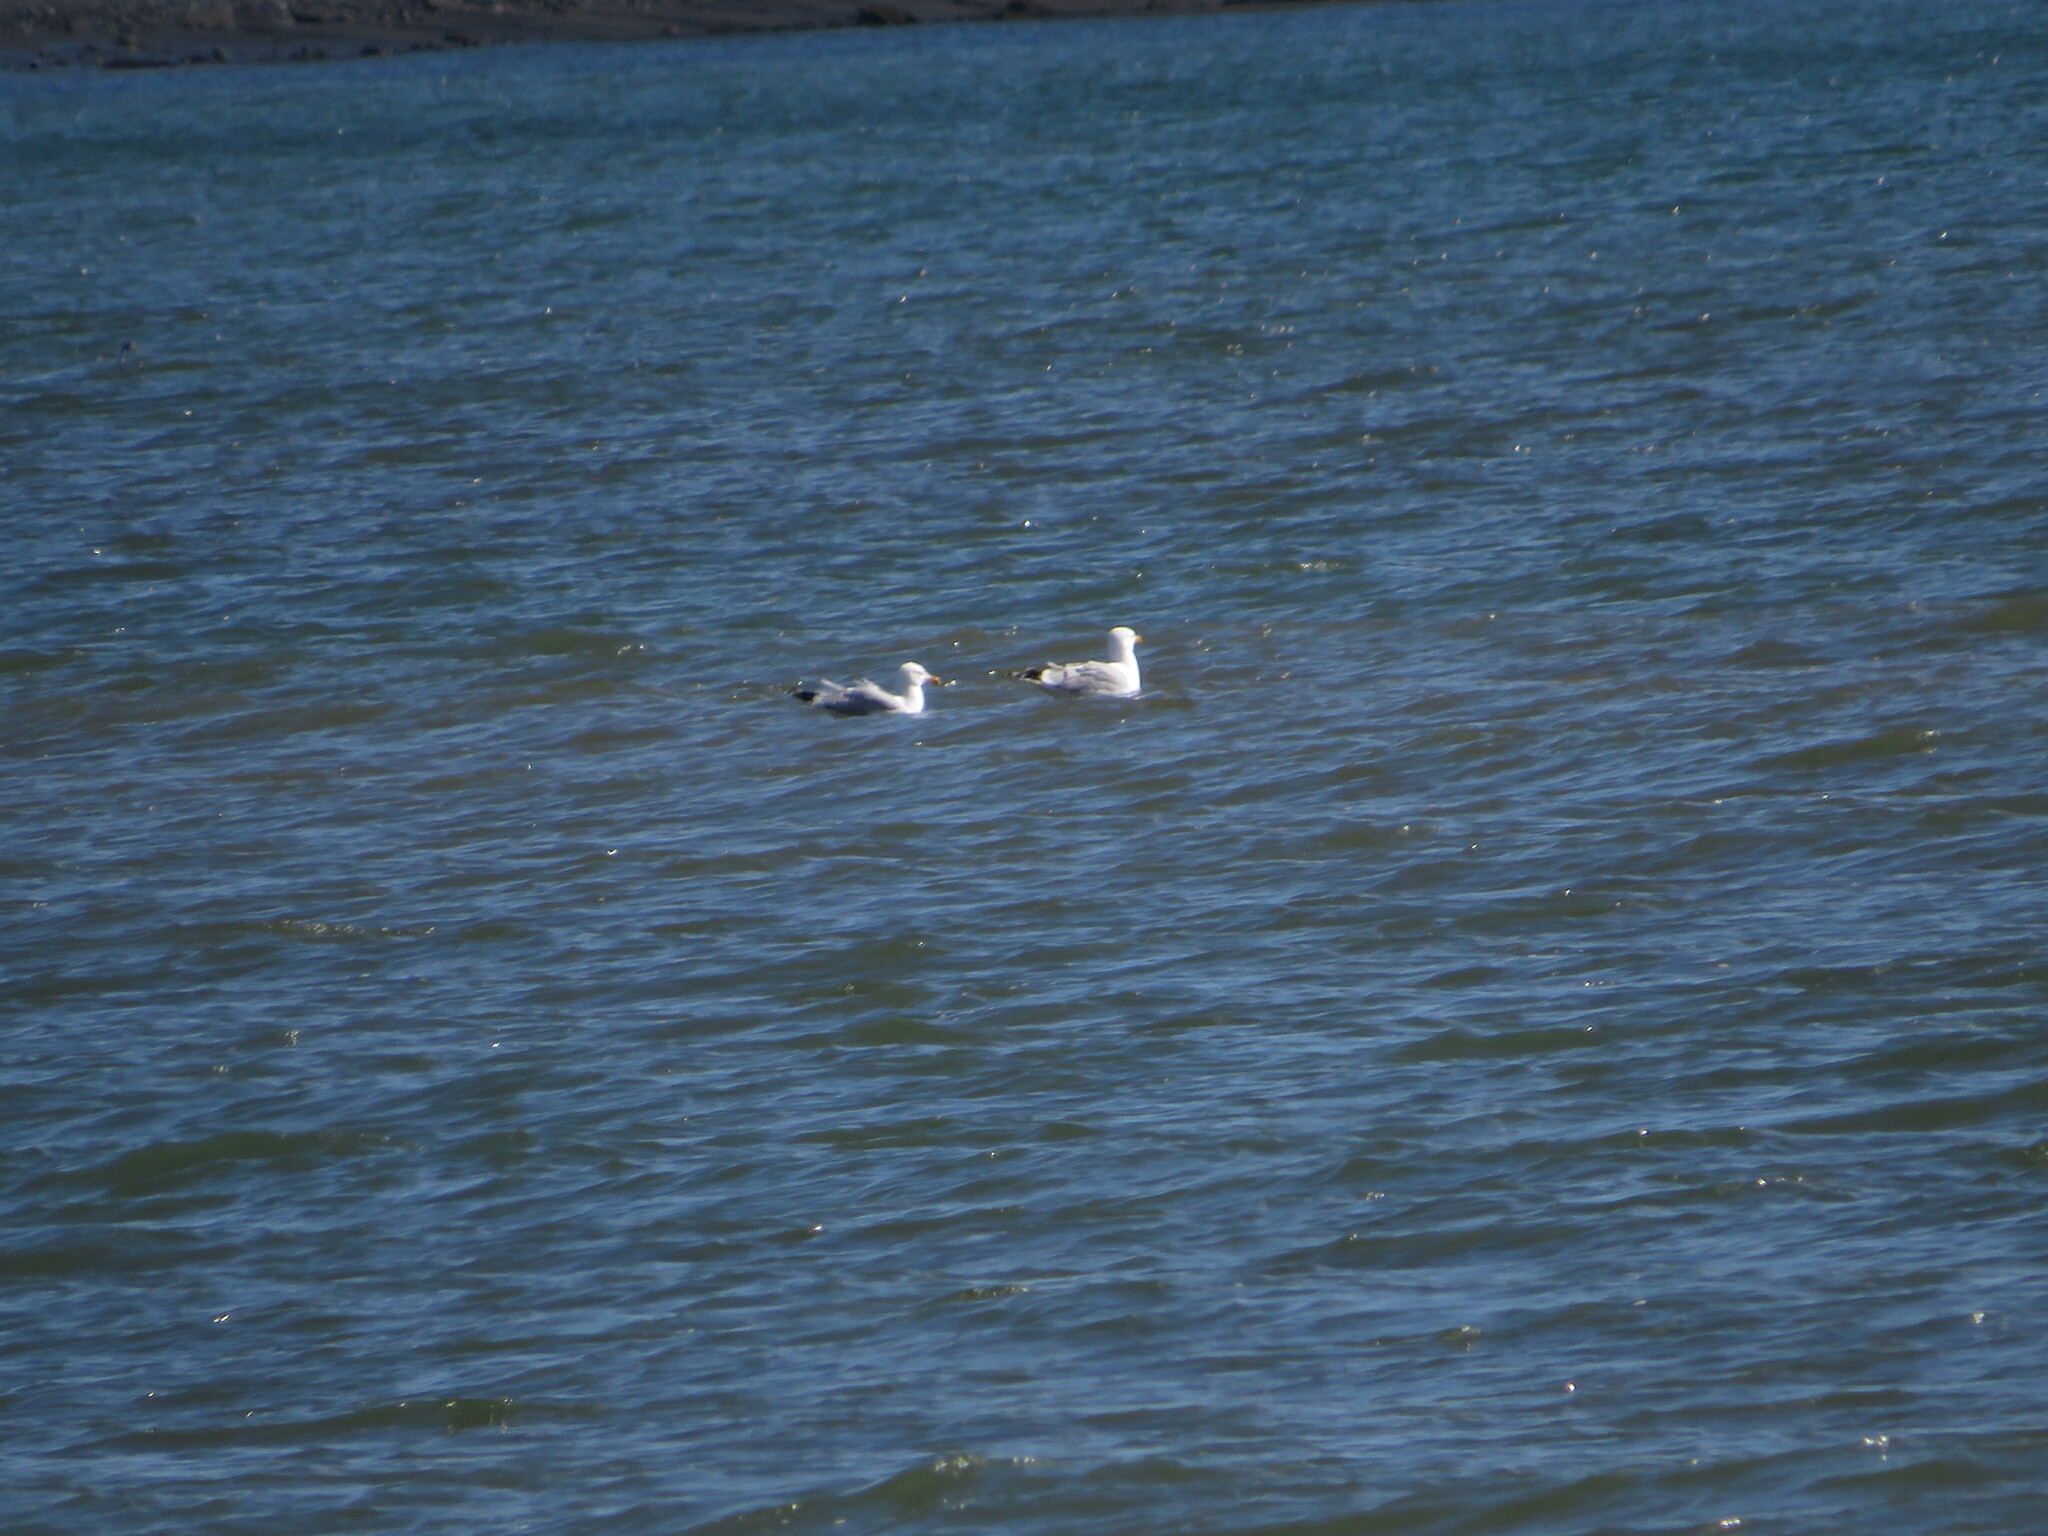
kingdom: Animalia
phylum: Chordata
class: Aves
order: Charadriiformes
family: Laridae
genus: Larus
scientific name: Larus argentatus
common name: Herring gull
